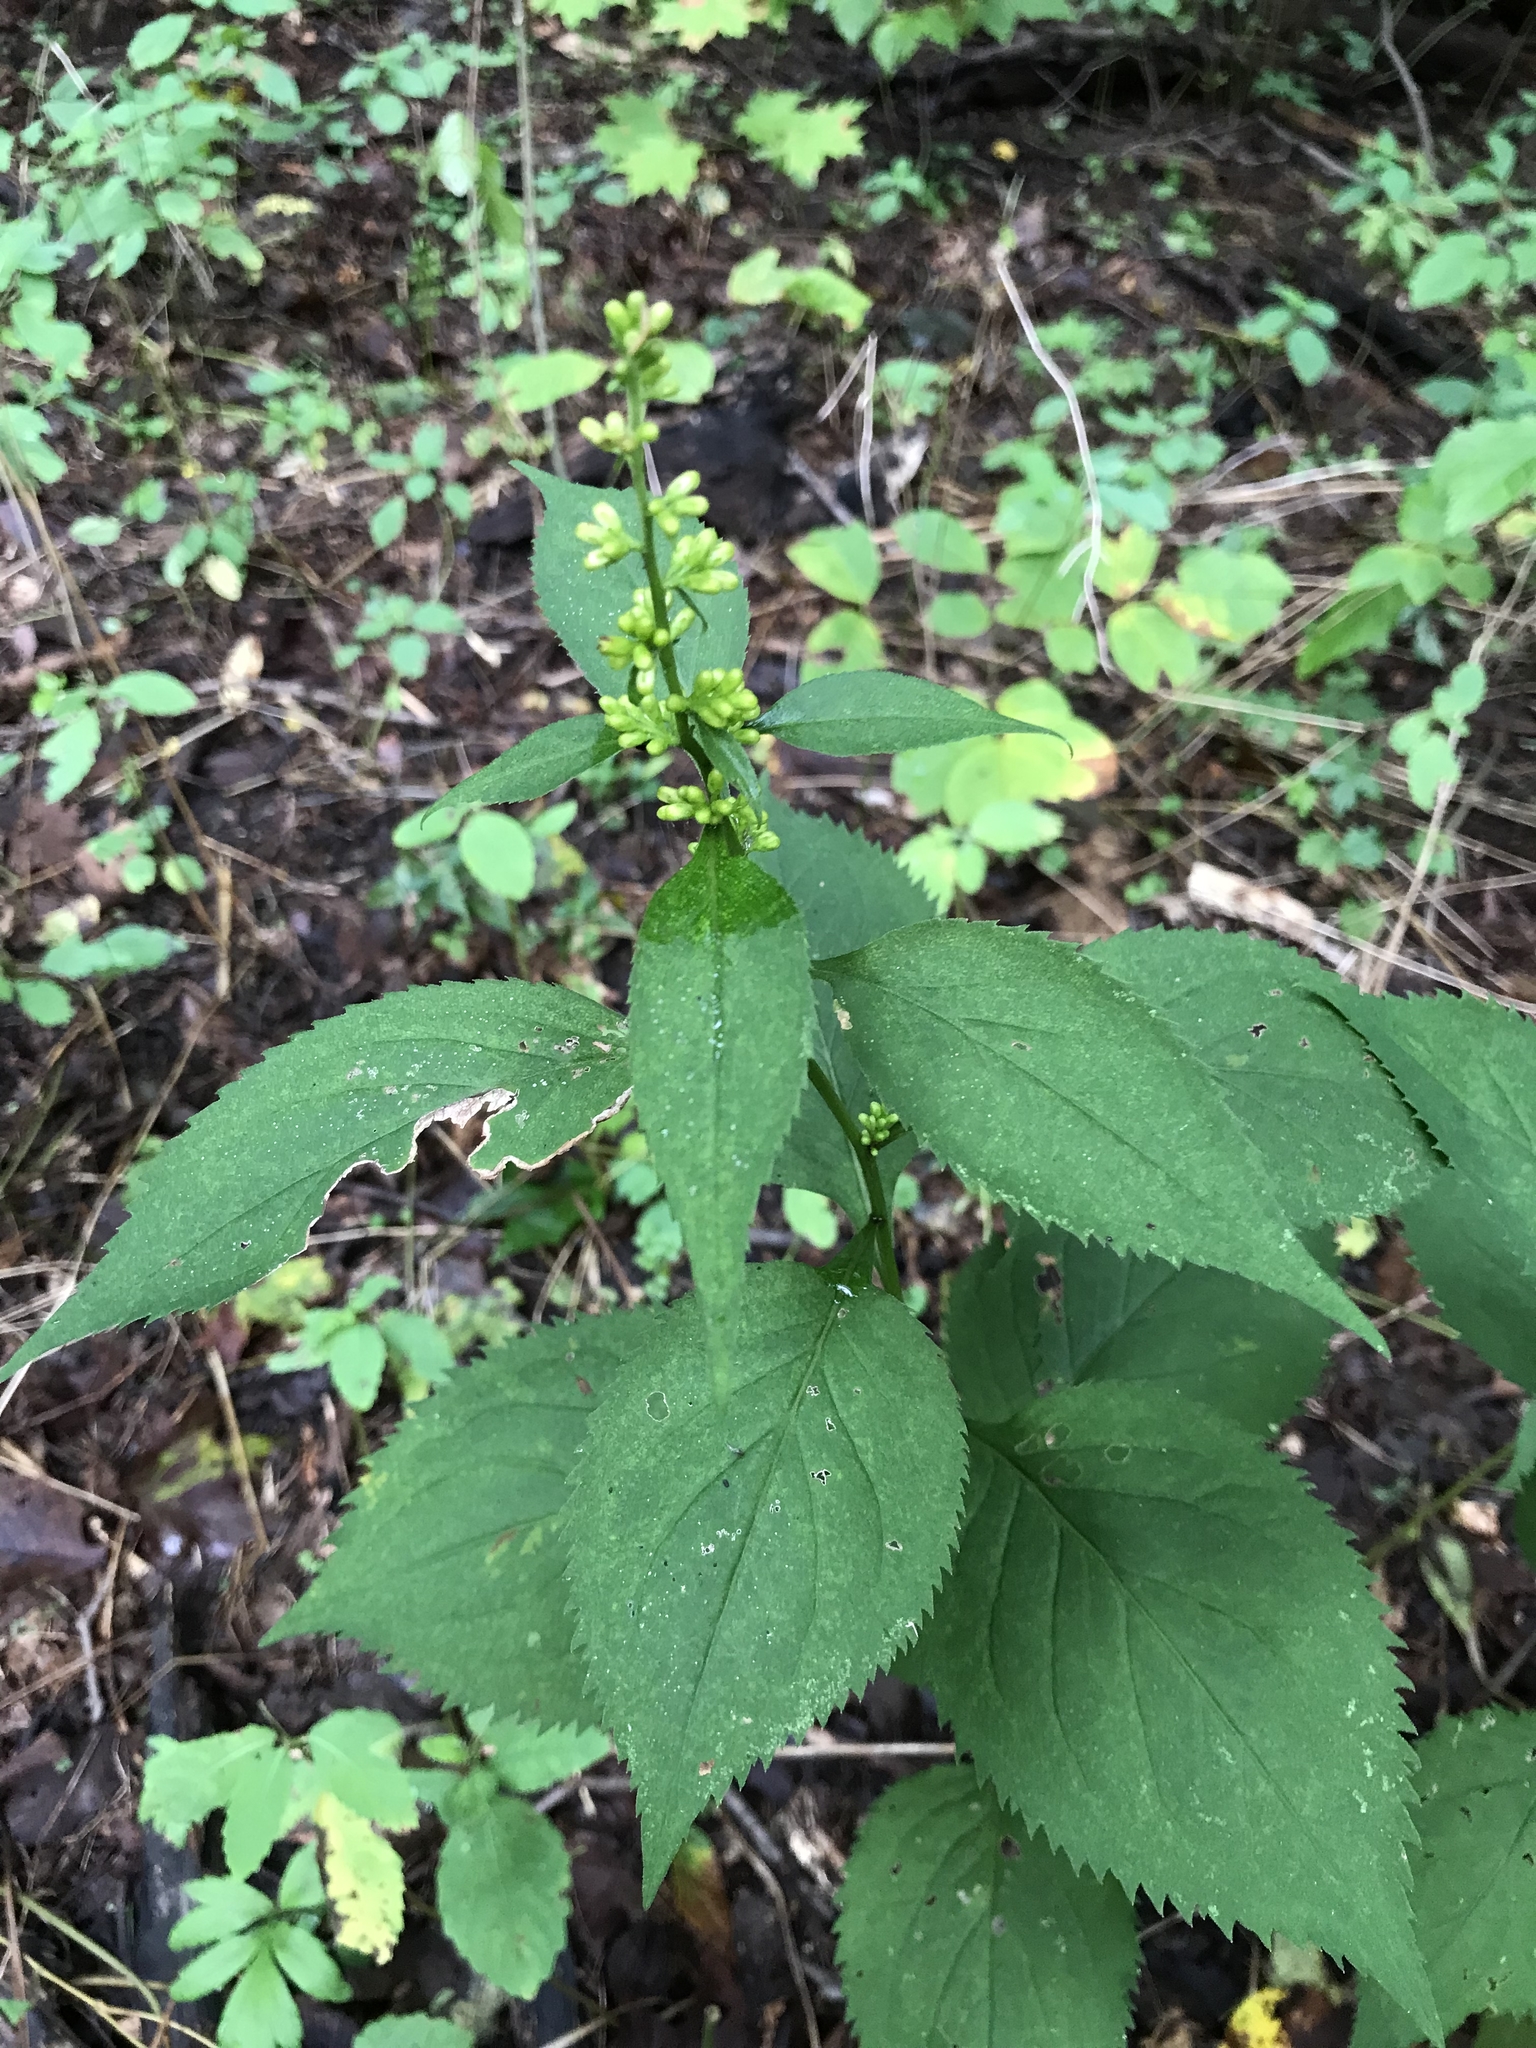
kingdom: Plantae
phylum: Tracheophyta
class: Magnoliopsida
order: Asterales
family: Asteraceae
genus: Solidago
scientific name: Solidago flexicaulis
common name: Zig-zag goldenrod
